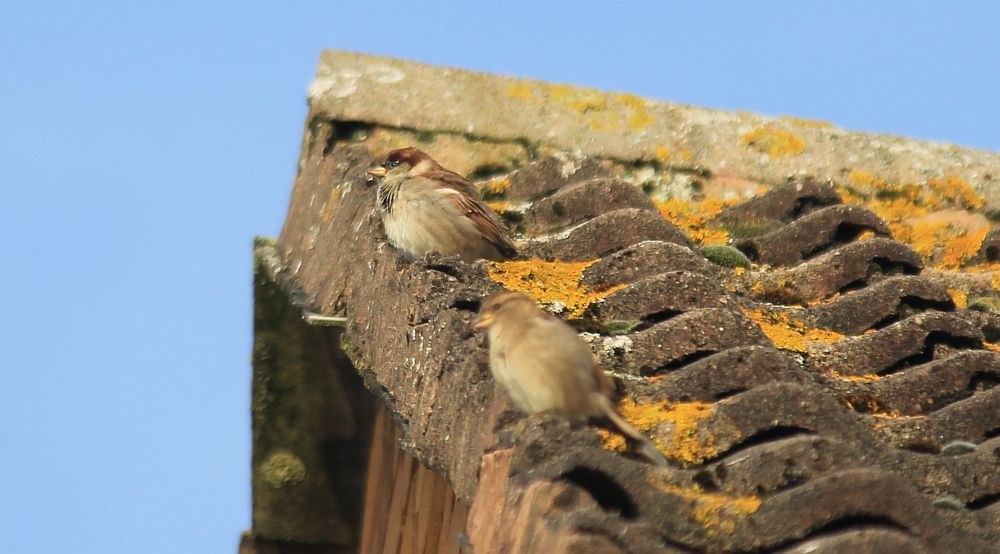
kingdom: Animalia
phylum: Chordata
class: Aves
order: Passeriformes
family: Passeridae
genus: Passer
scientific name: Passer domesticus
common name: House sparrow
